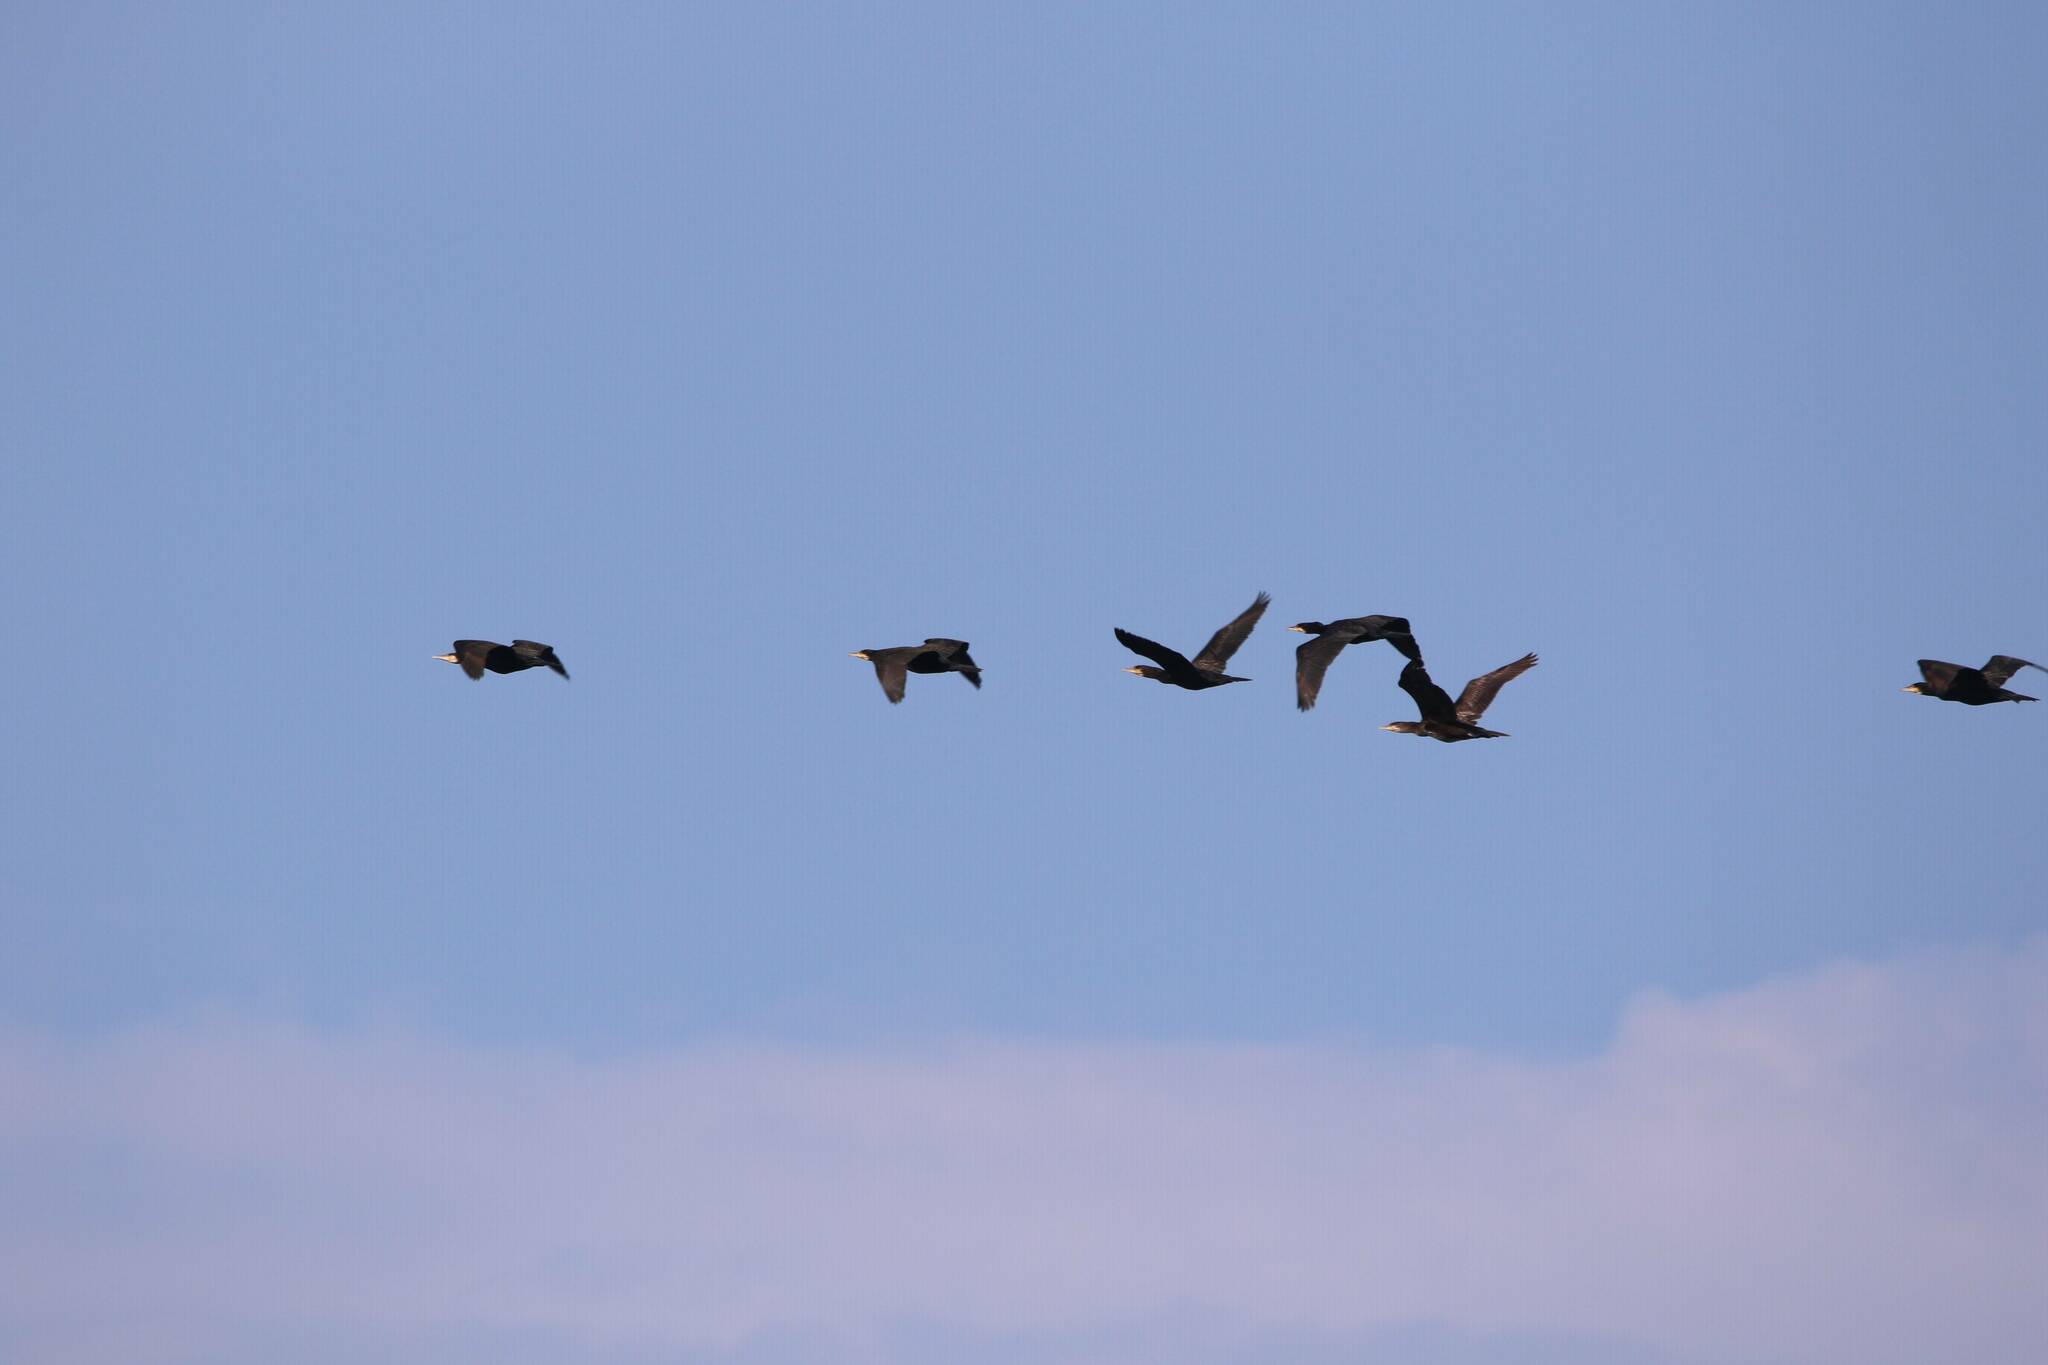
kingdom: Animalia
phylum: Chordata
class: Aves
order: Suliformes
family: Phalacrocoracidae
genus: Phalacrocorax
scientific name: Phalacrocorax carbo
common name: Great cormorant
